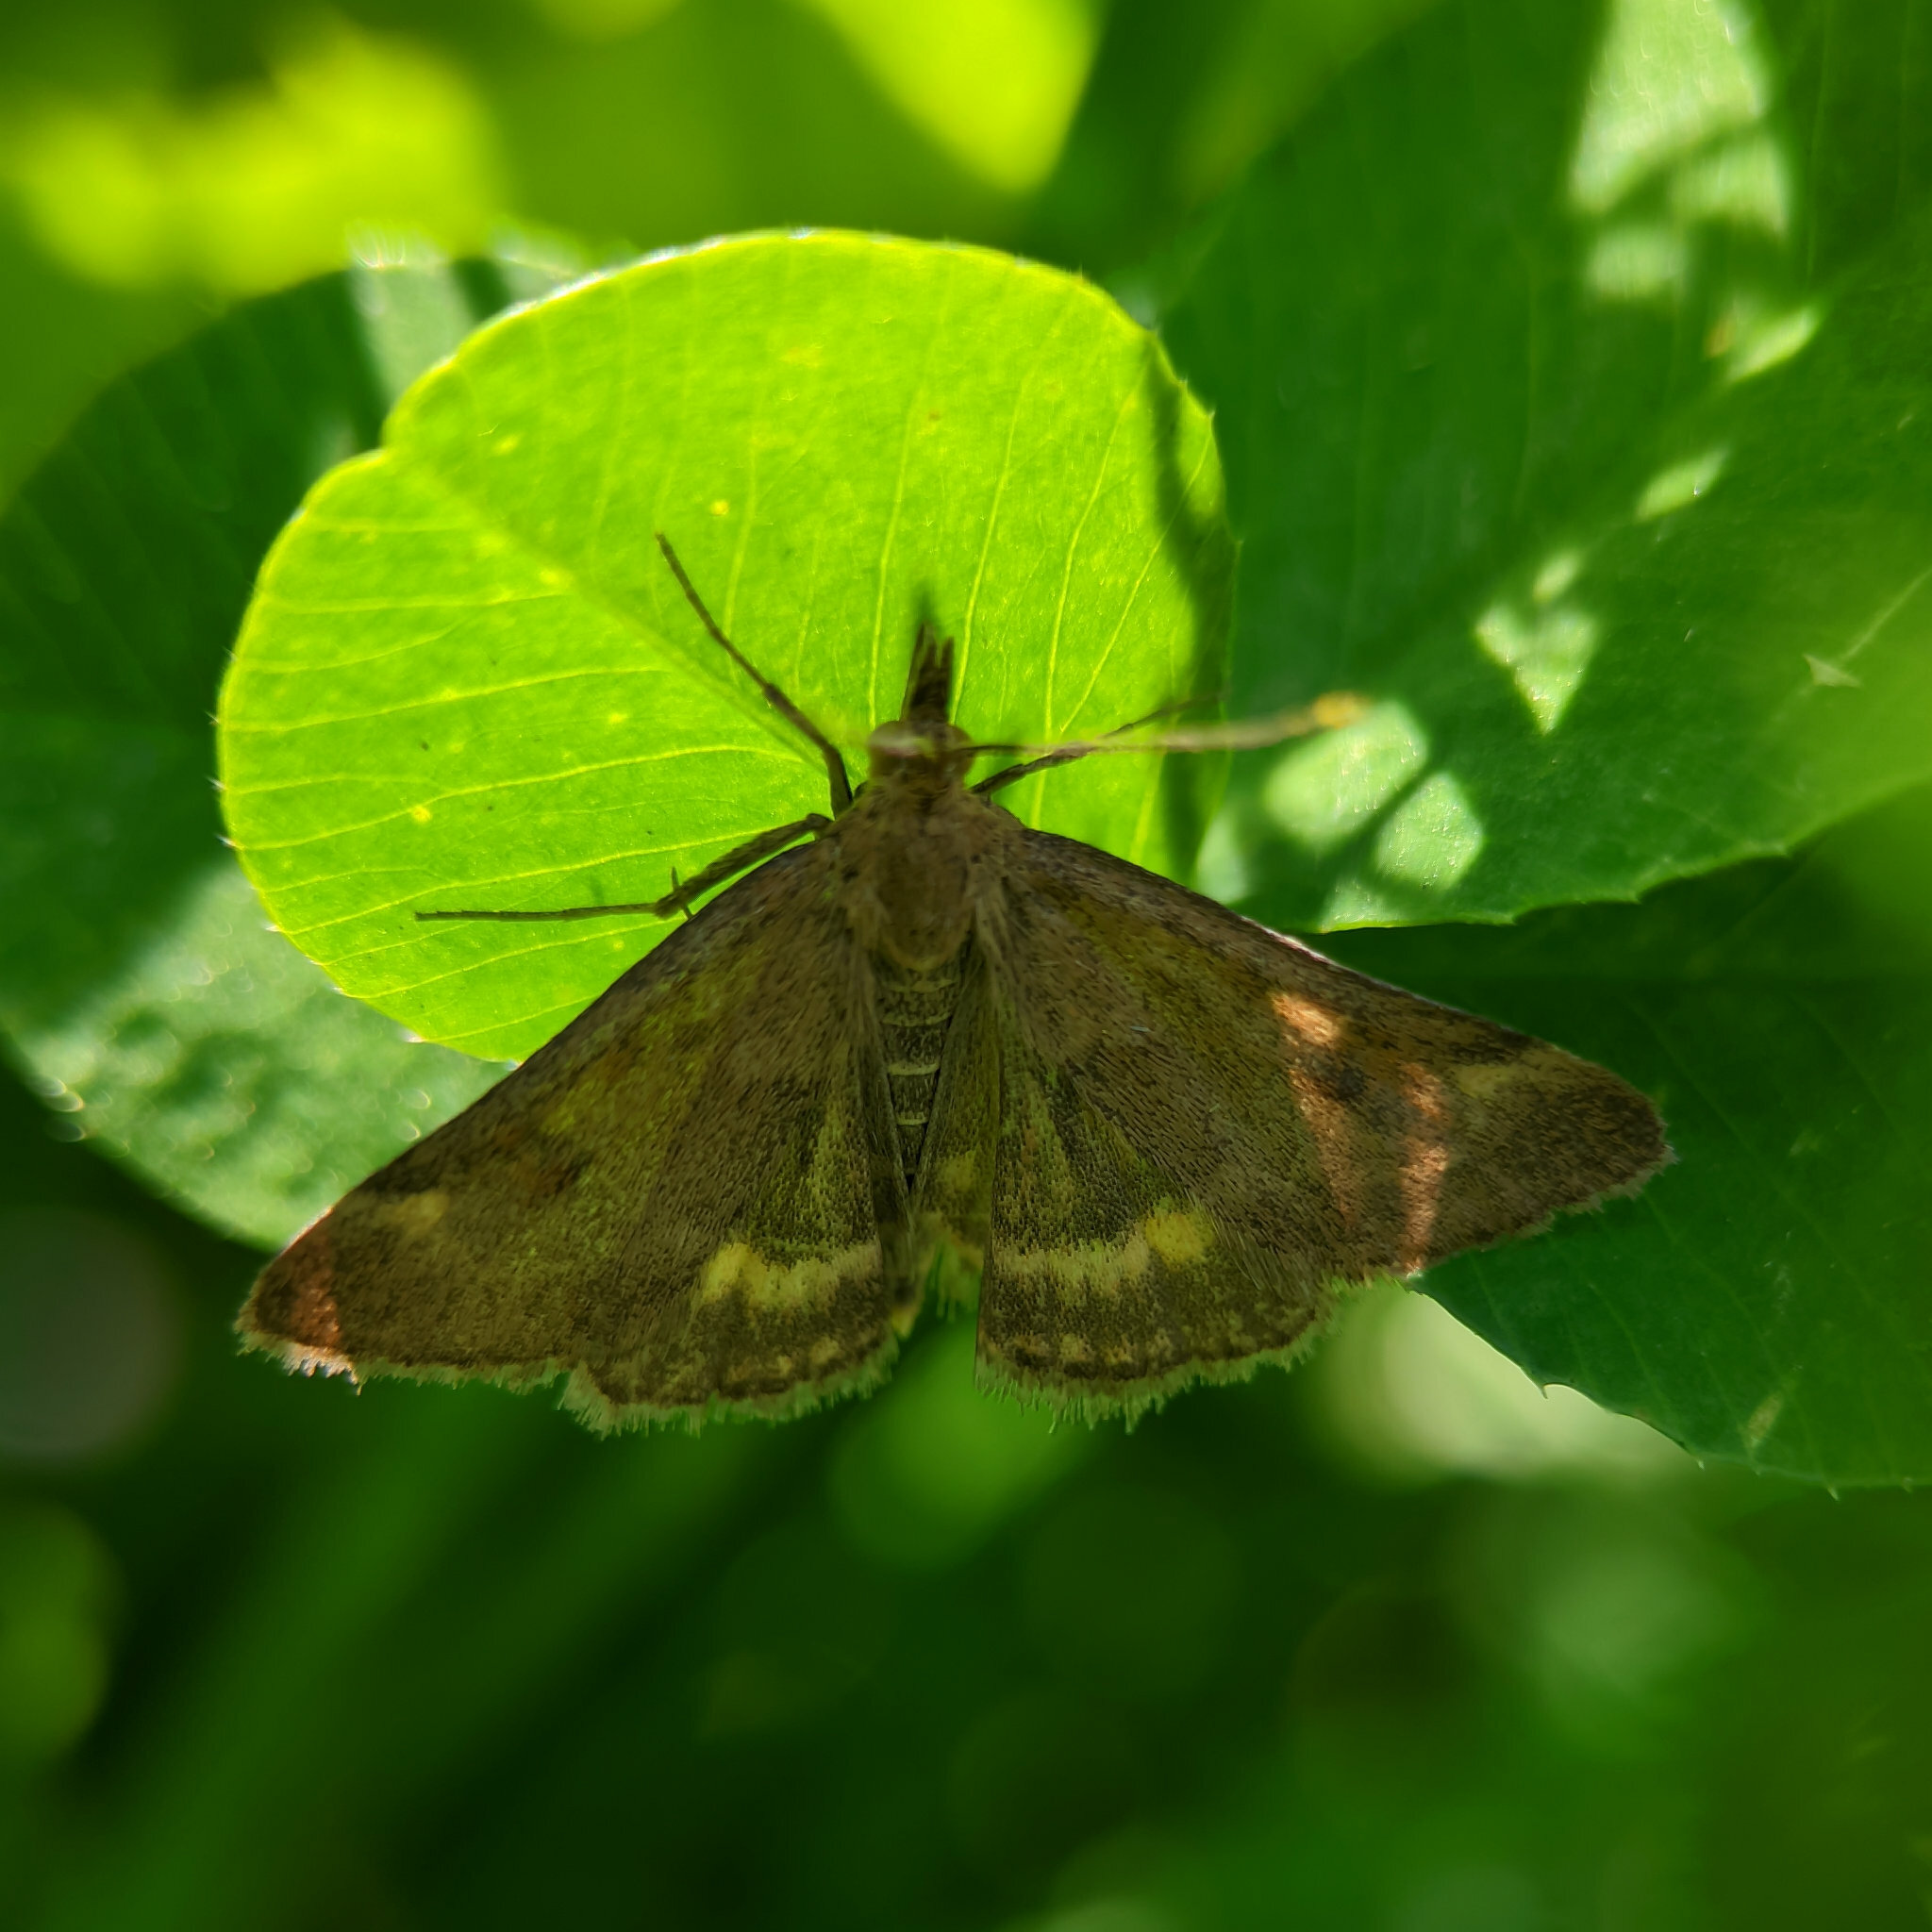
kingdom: Animalia
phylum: Arthropoda
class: Insecta
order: Lepidoptera
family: Crambidae
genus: Pyrausta
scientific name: Pyrausta despicata
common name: Straw-barred pearl
